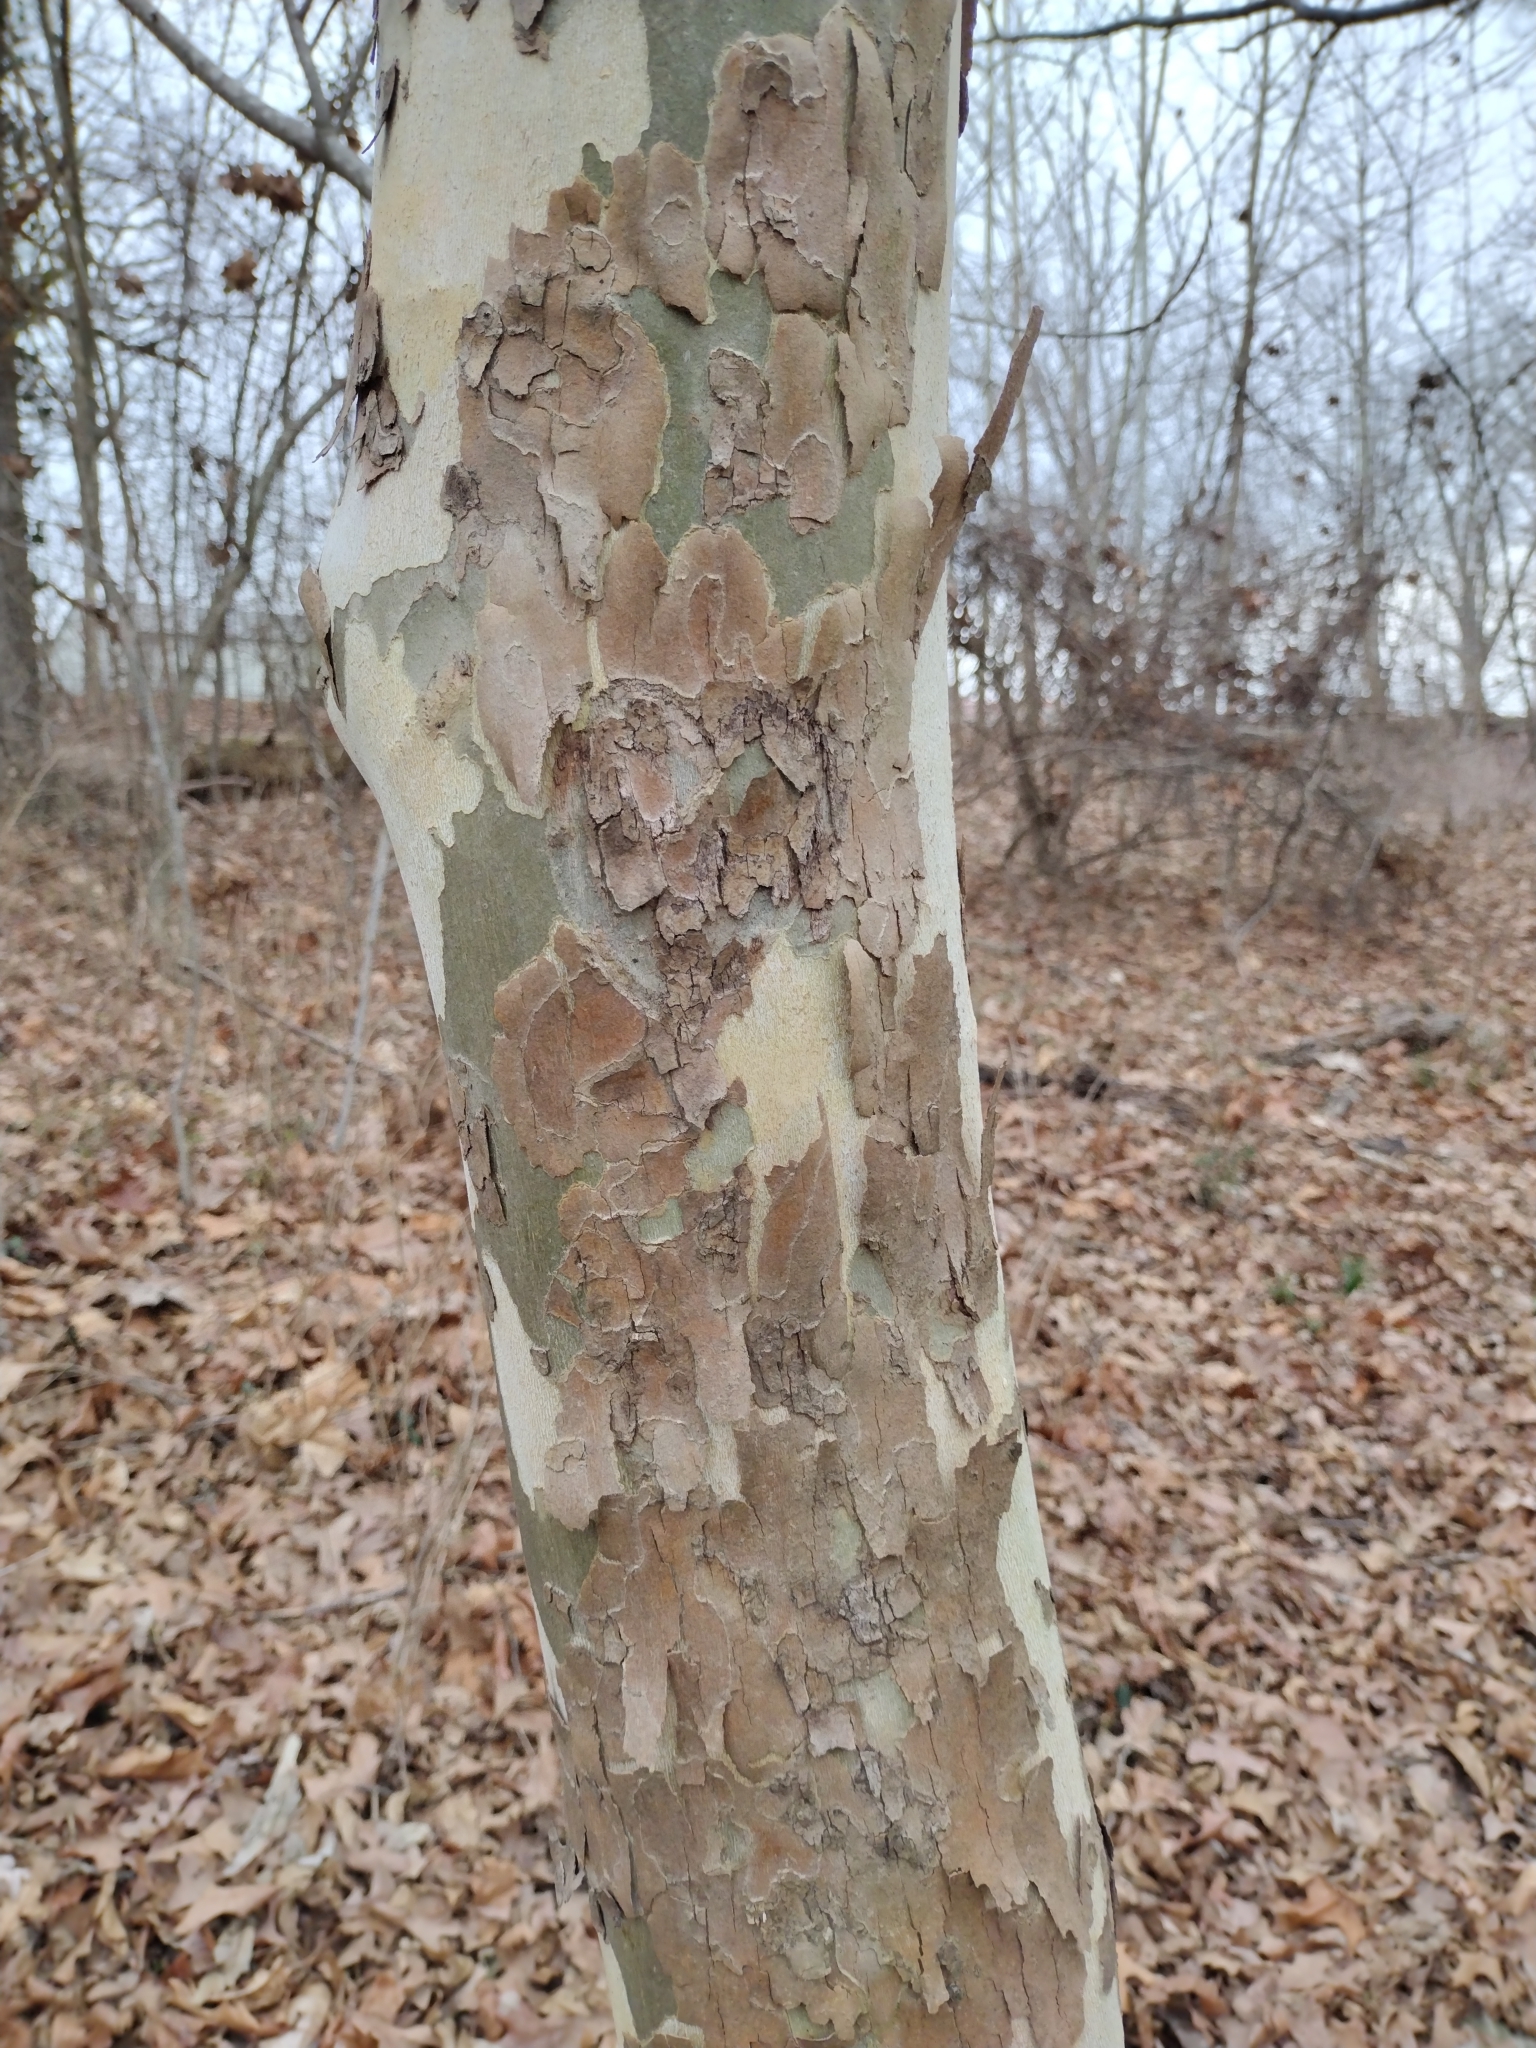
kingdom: Plantae
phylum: Tracheophyta
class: Magnoliopsida
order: Proteales
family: Platanaceae
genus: Platanus
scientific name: Platanus occidentalis
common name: American sycamore
